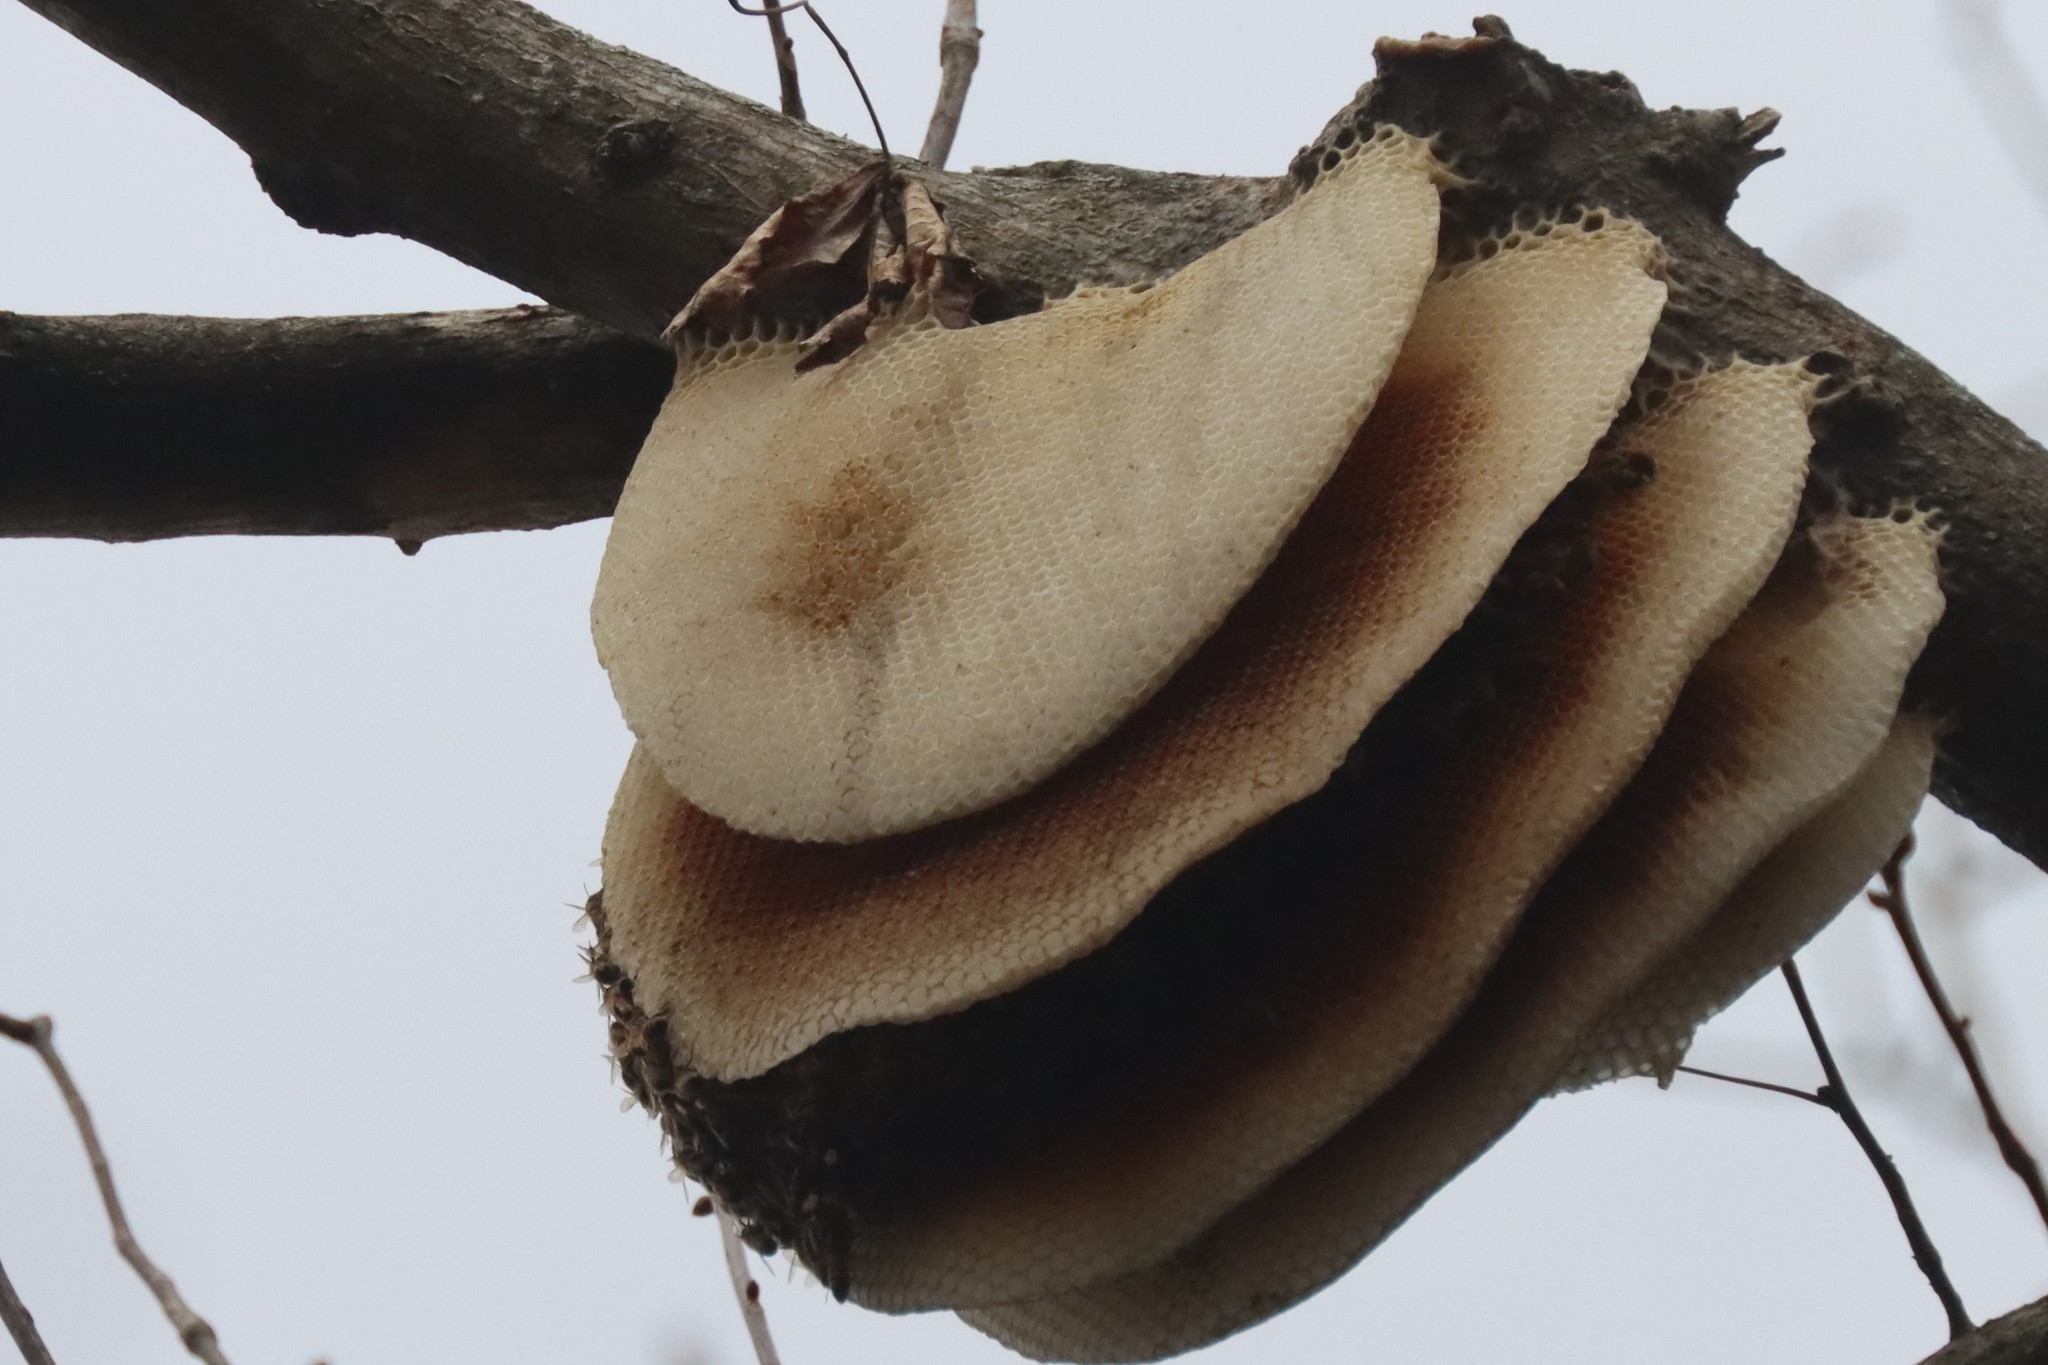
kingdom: Animalia
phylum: Arthropoda
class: Insecta
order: Hymenoptera
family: Apidae
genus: Apis
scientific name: Apis mellifera
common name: Honey bee
